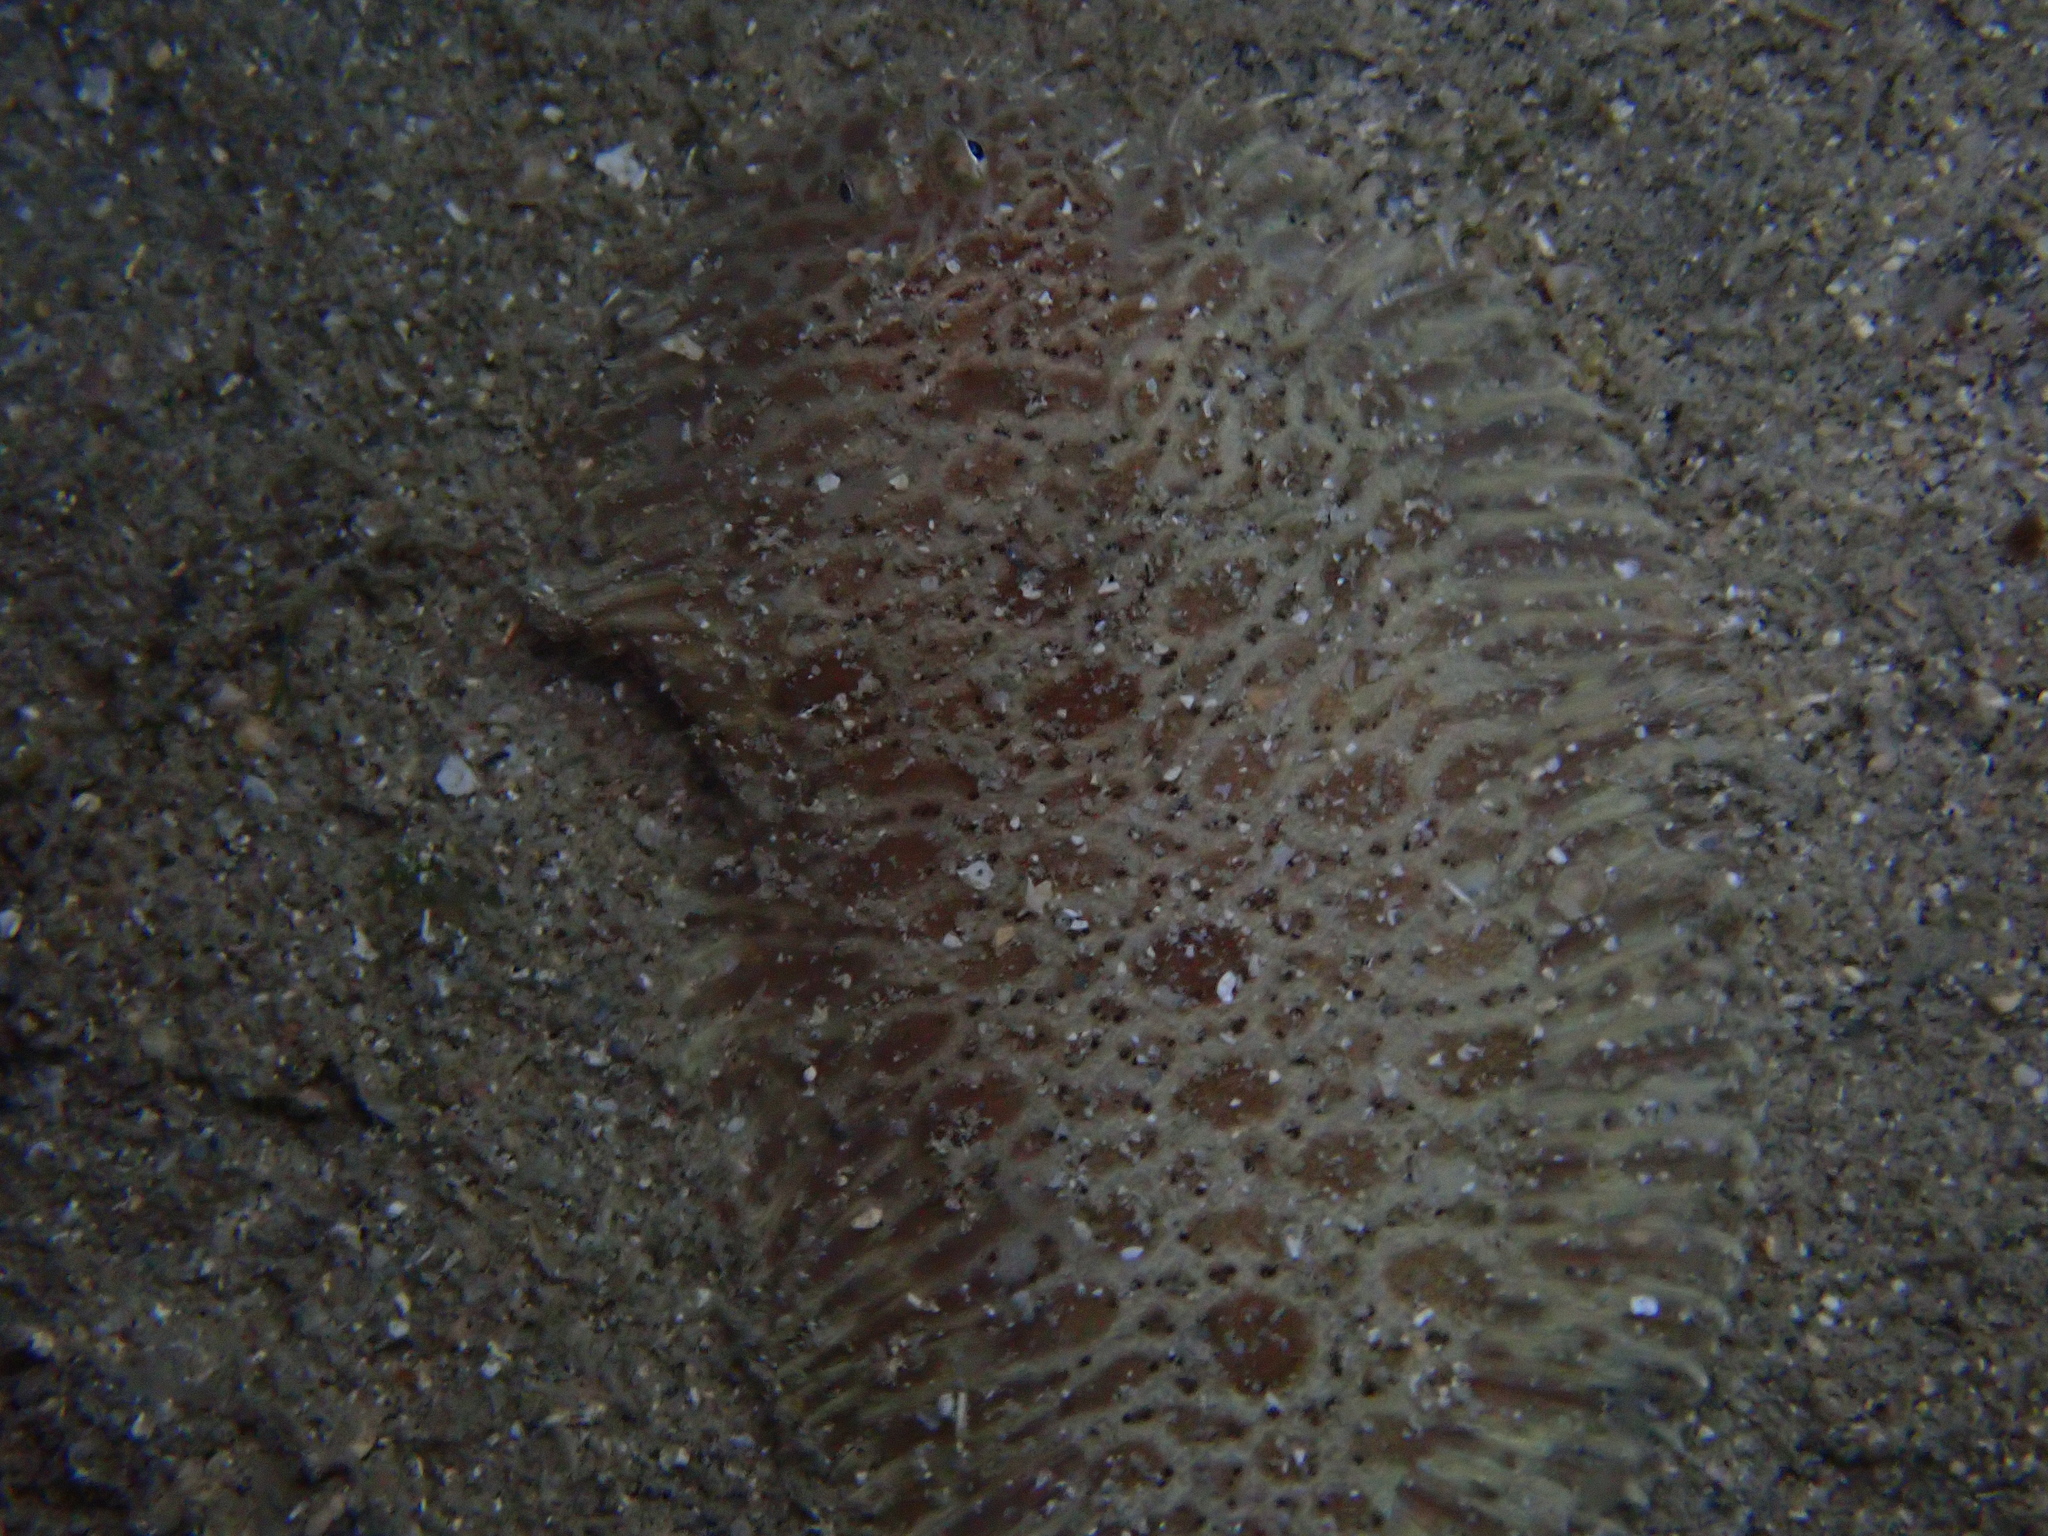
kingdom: Animalia
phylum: Chordata
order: Pleuronectiformes
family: Soleidae
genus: Liachirus
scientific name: Liachirus melanospilos
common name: Carpet sole
